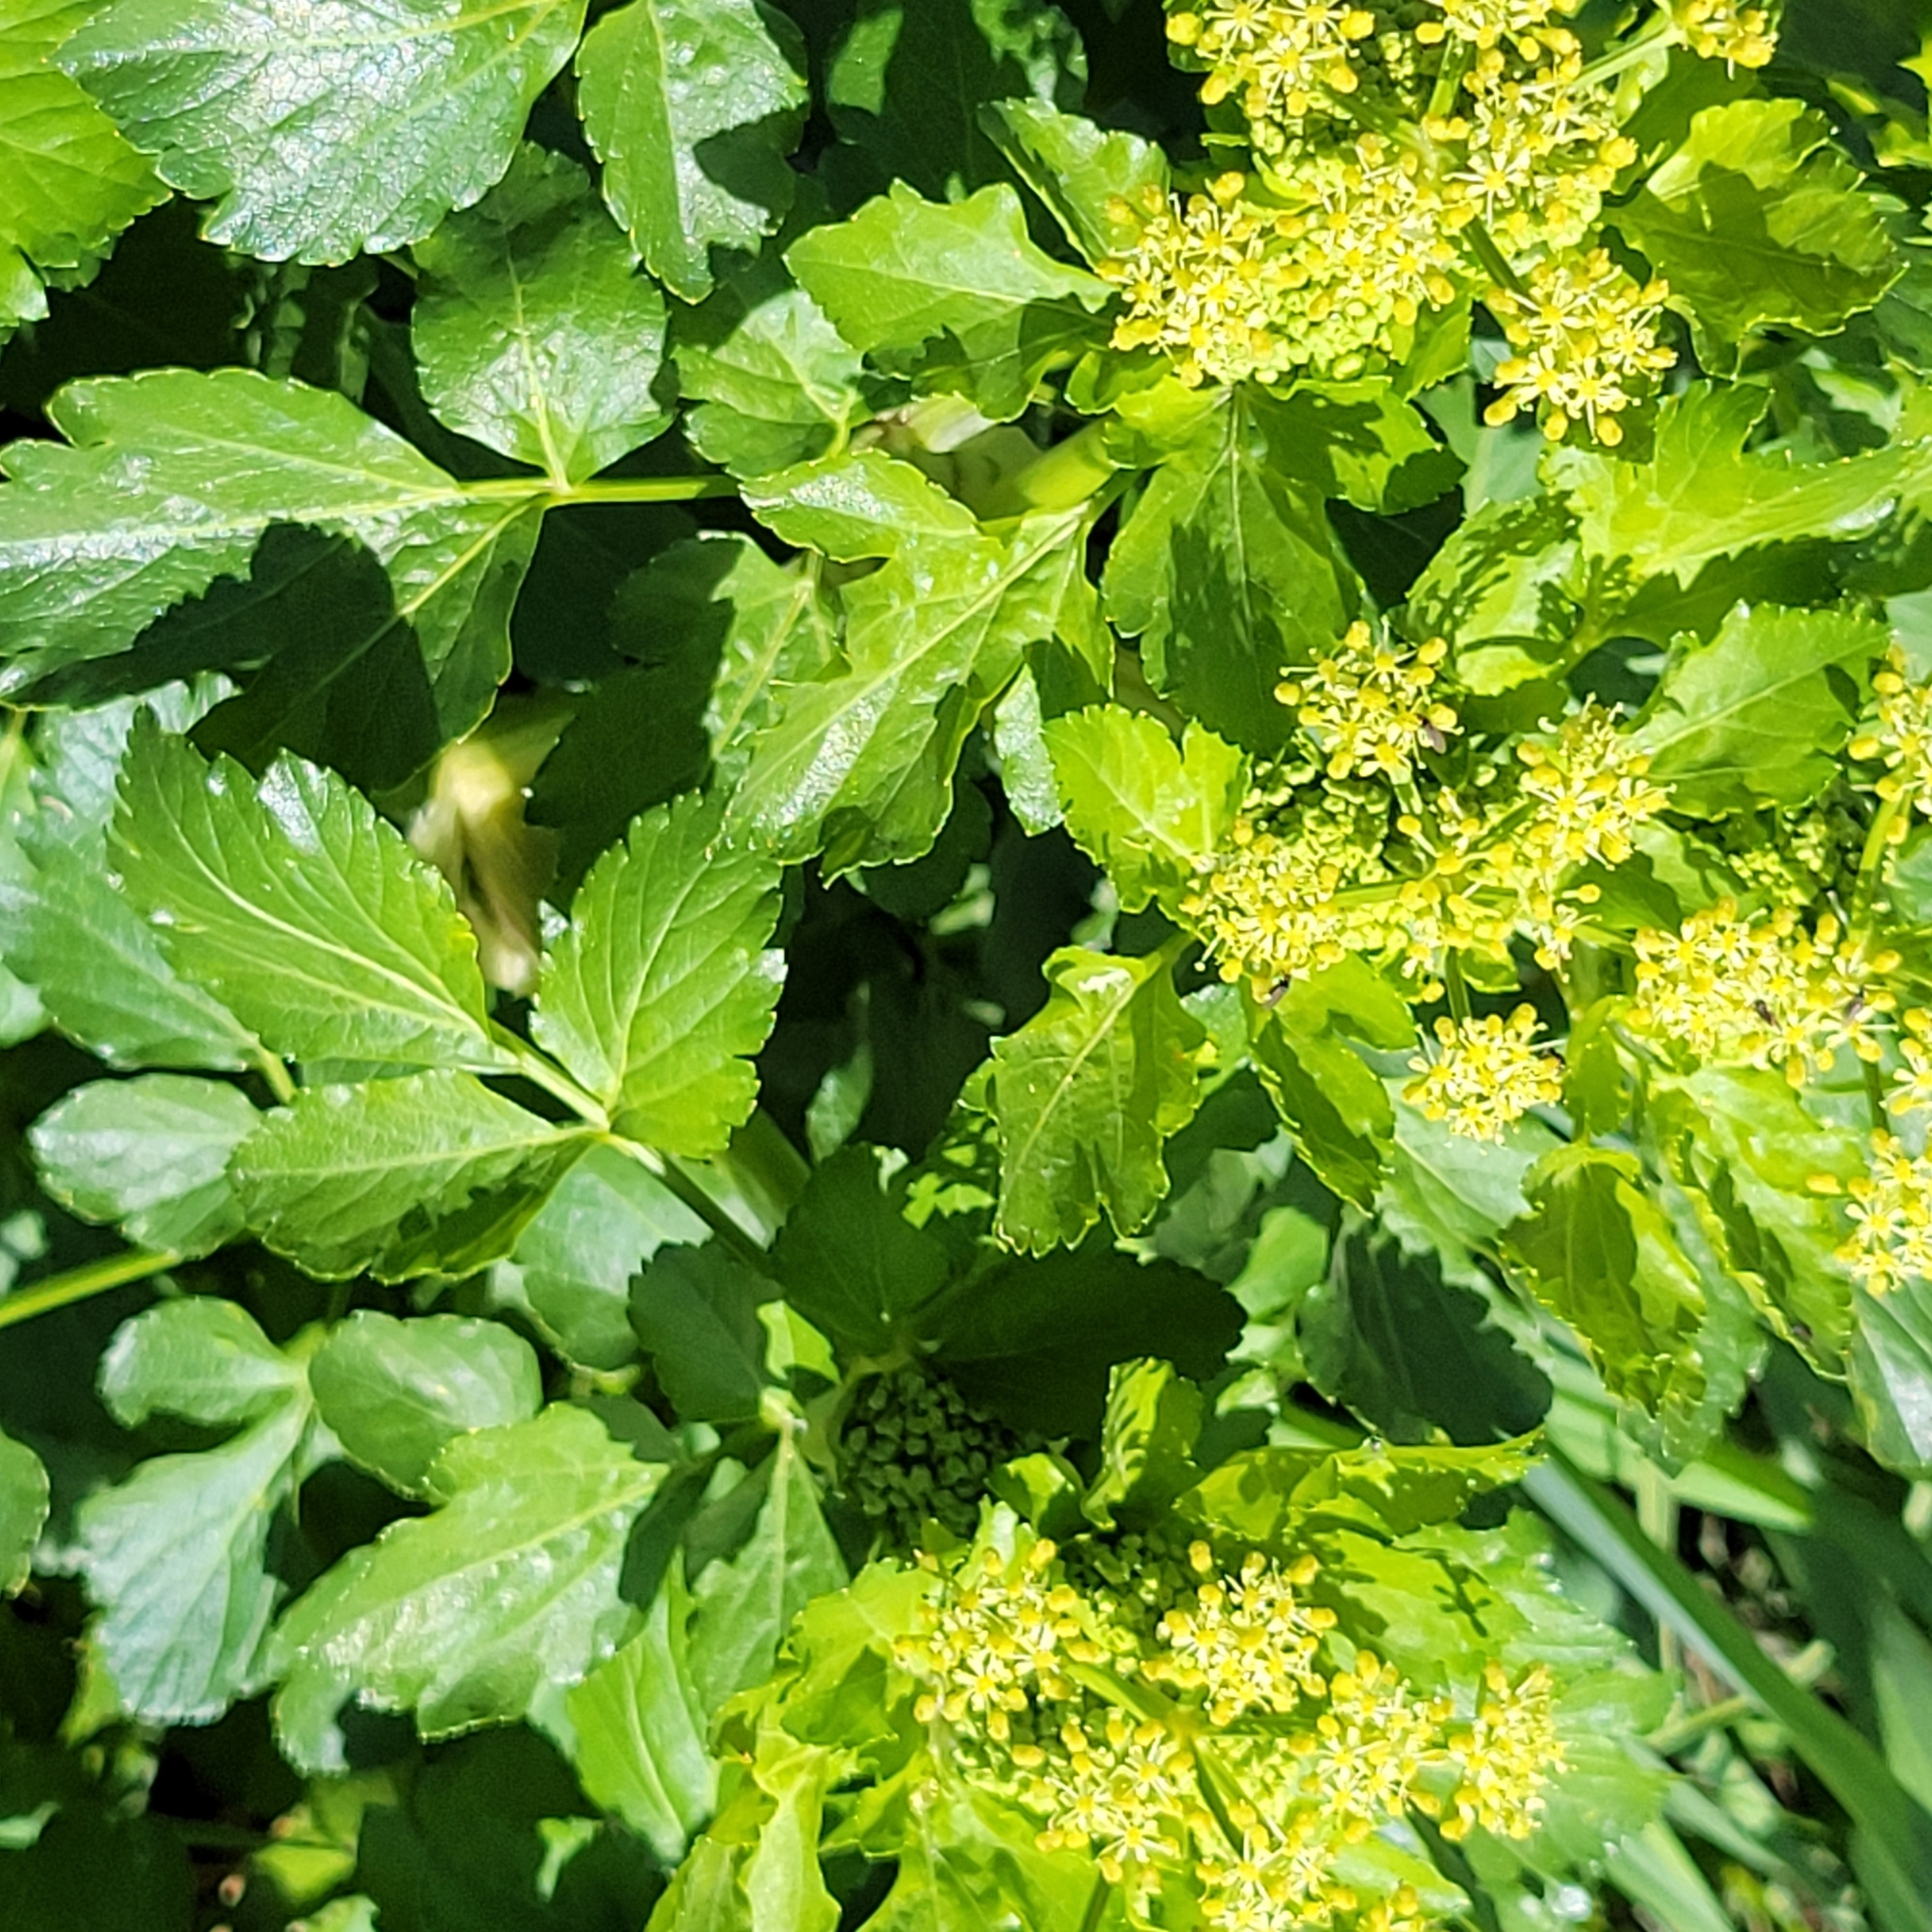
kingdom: Plantae
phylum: Tracheophyta
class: Magnoliopsida
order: Apiales
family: Apiaceae
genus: Smyrnium
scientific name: Smyrnium olusatrum
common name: Alexanders
